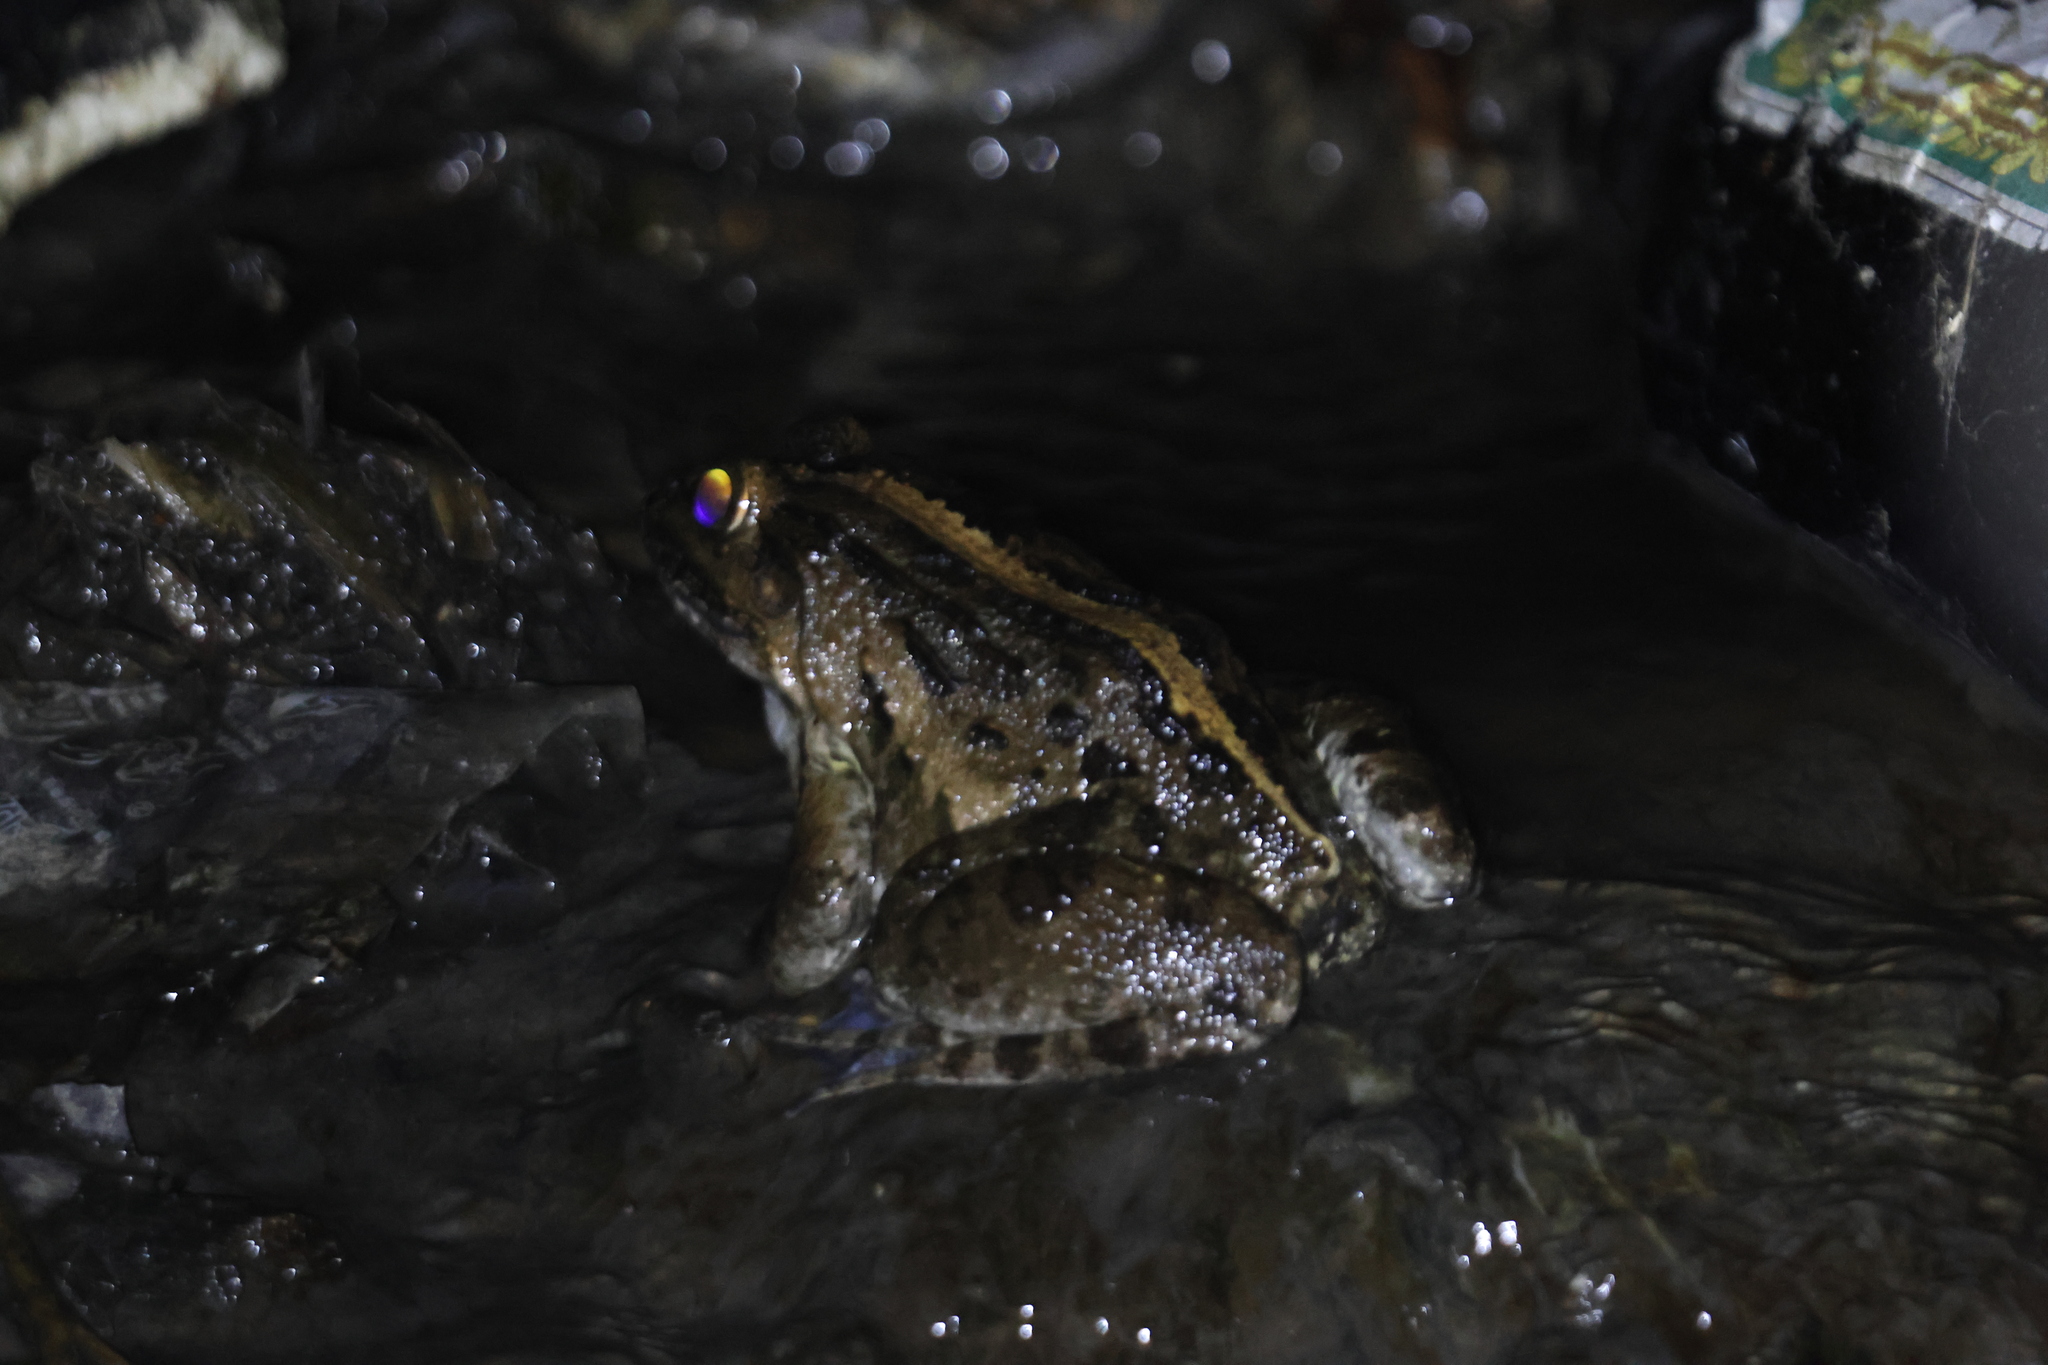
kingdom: Animalia
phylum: Chordata
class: Amphibia
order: Anura
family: Dicroglossidae
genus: Fejervarya
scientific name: Fejervarya cancrivora
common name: Crab-eating frog/mangrove frog/rice field frog/asian brackish frog
